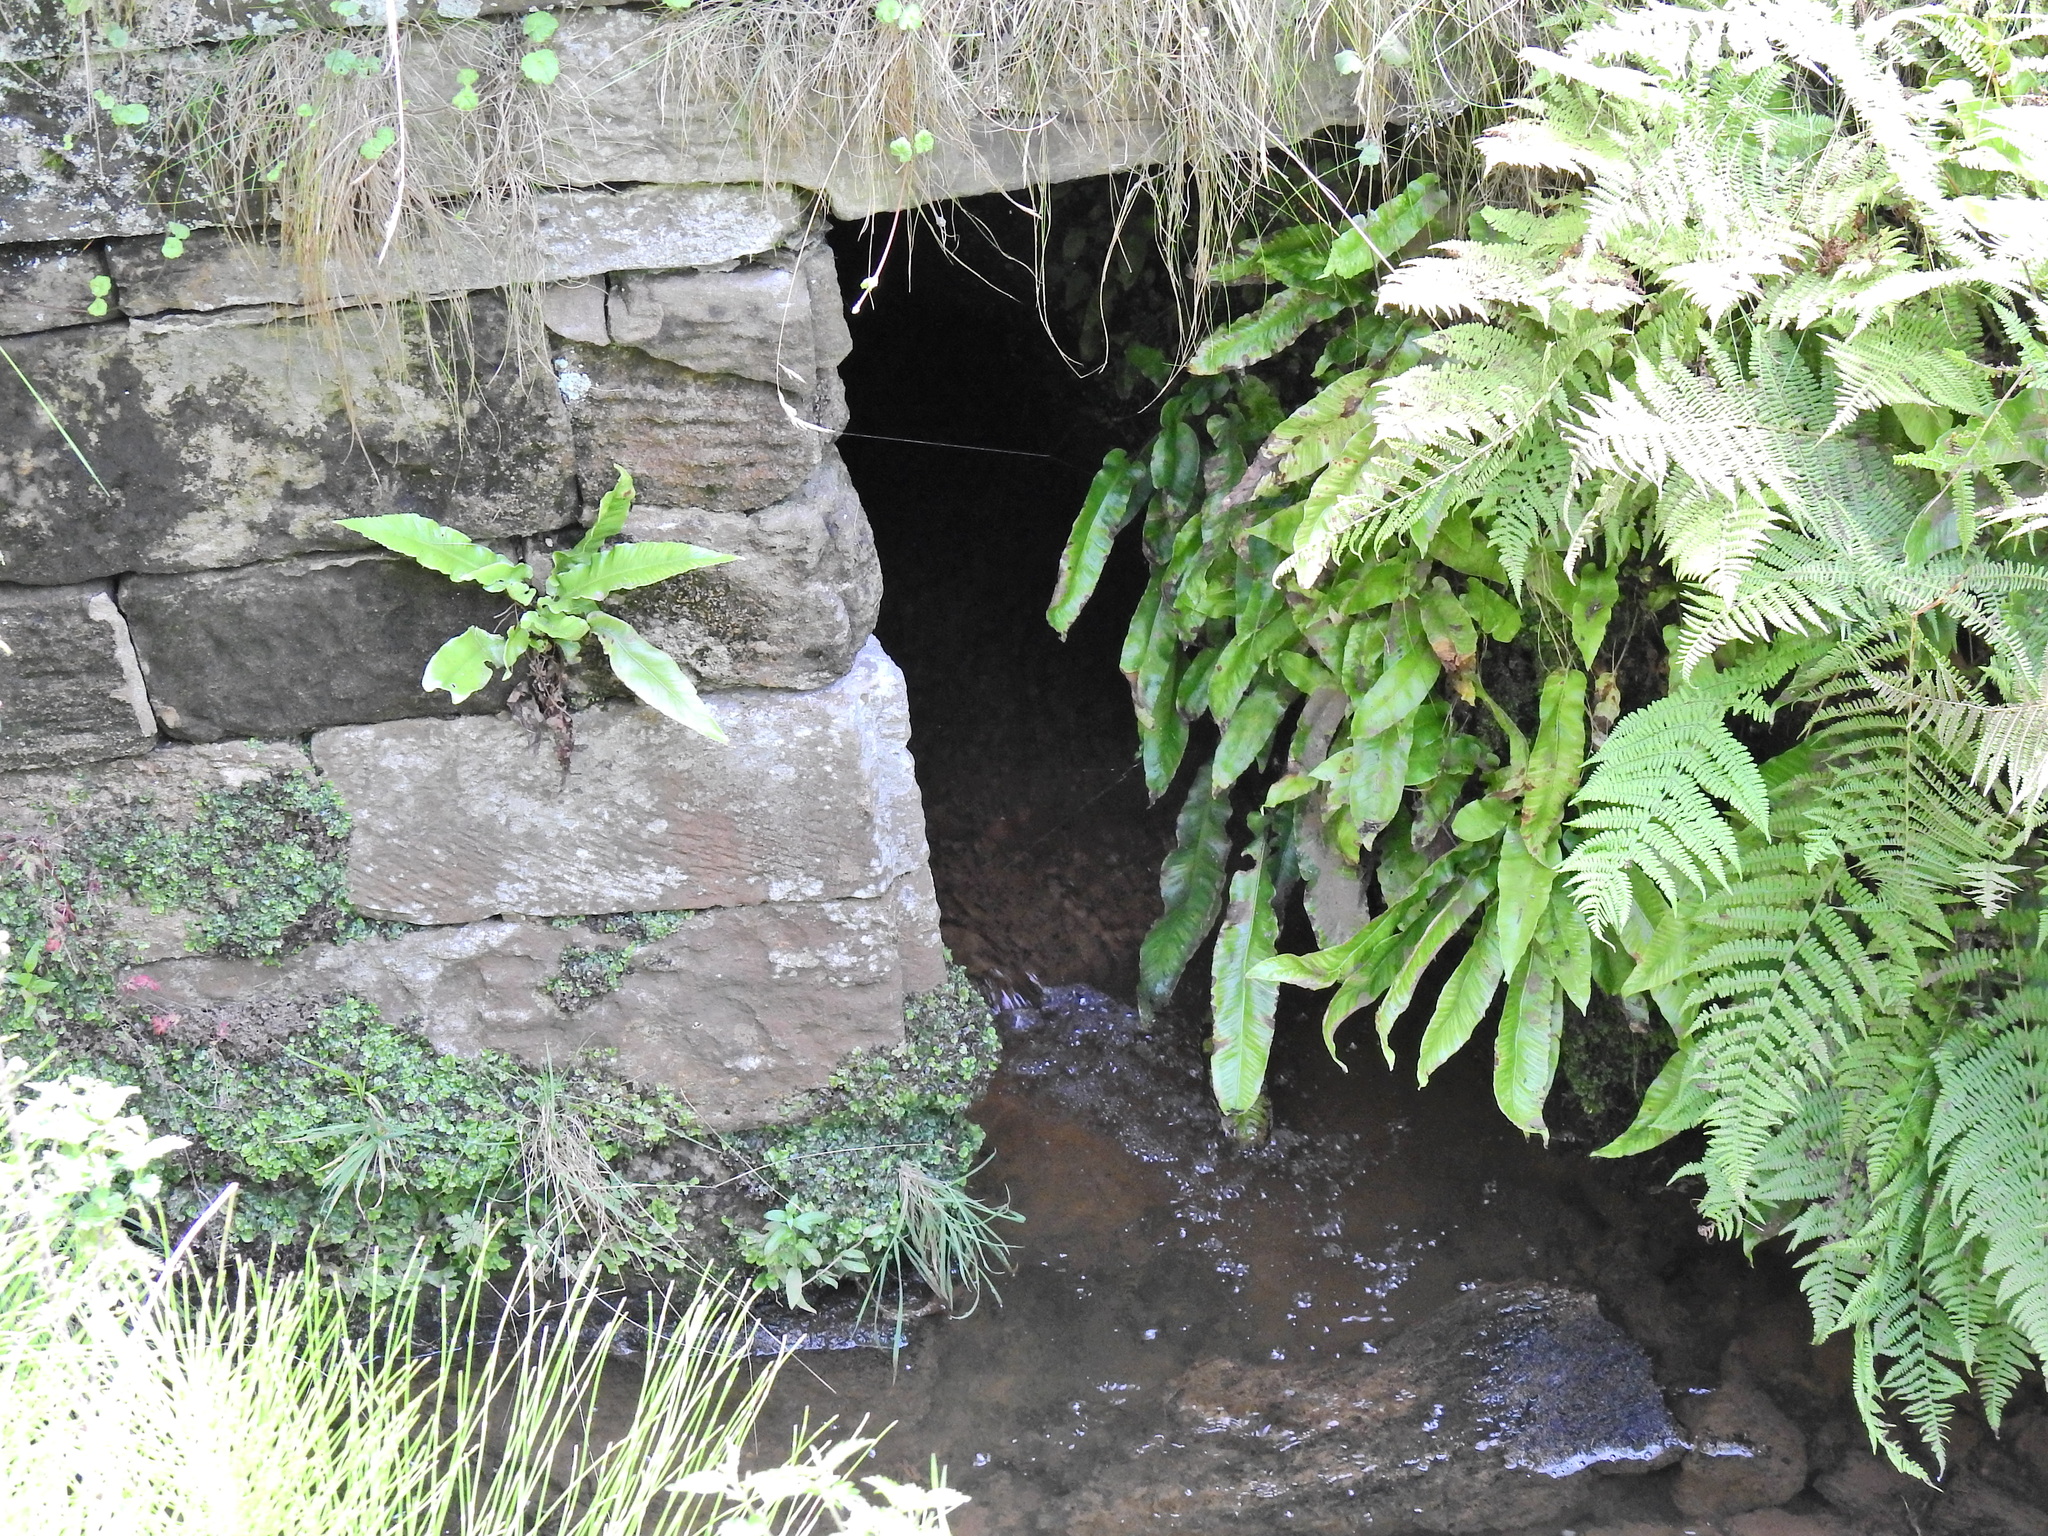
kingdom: Plantae
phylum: Tracheophyta
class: Polypodiopsida
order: Polypodiales
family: Aspleniaceae
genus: Asplenium
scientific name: Asplenium scolopendrium
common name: Hart's-tongue fern
